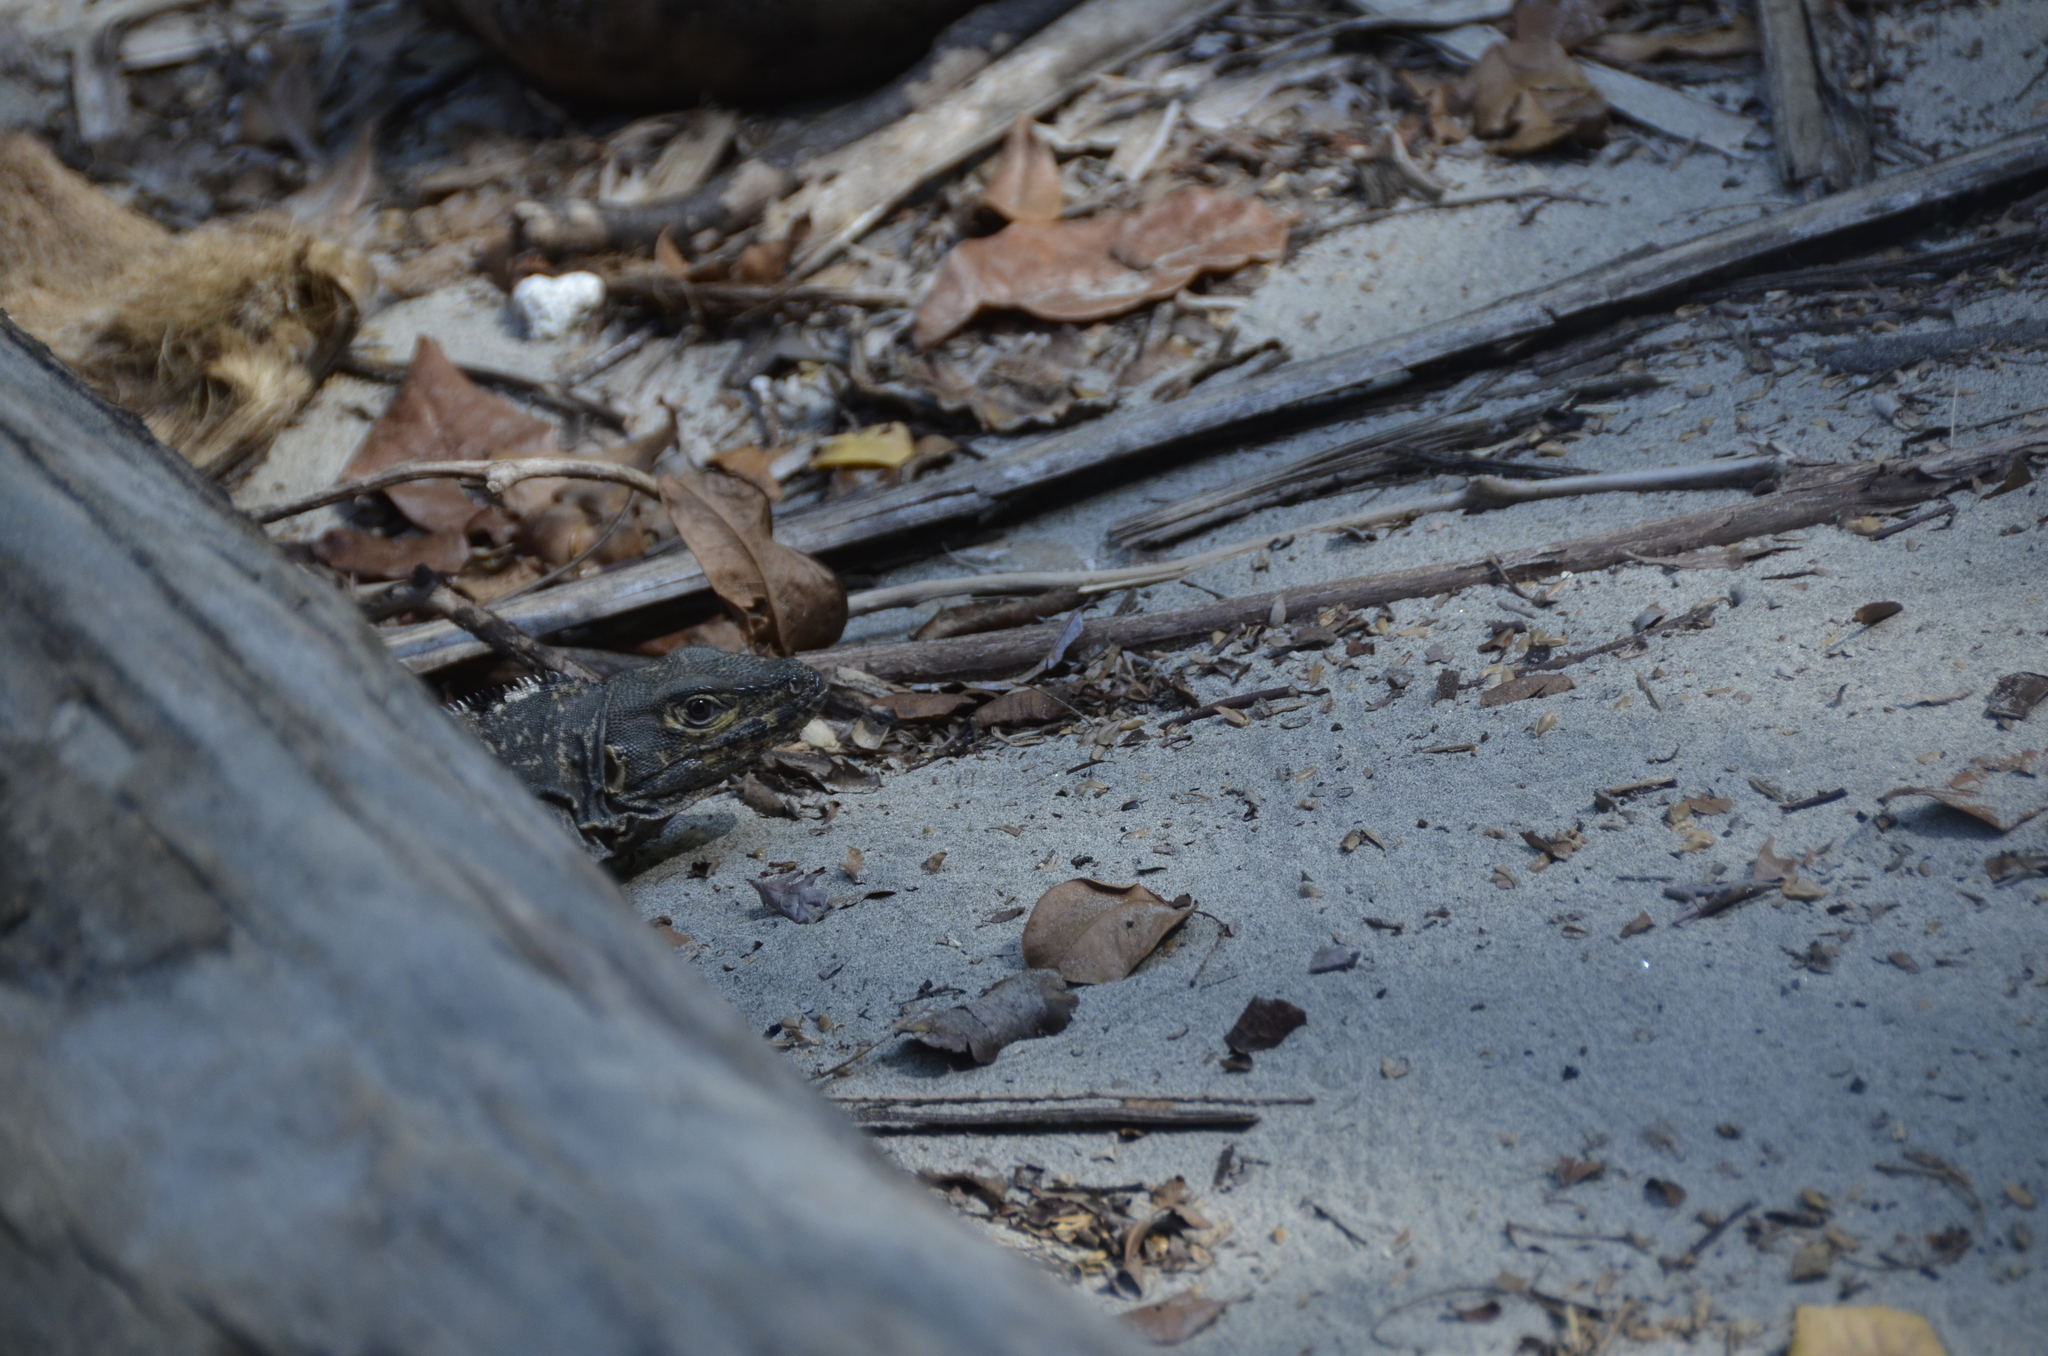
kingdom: Animalia
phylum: Chordata
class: Squamata
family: Iguanidae
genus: Ctenosaura
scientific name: Ctenosaura similis
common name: Black spiny-tailed iguana
